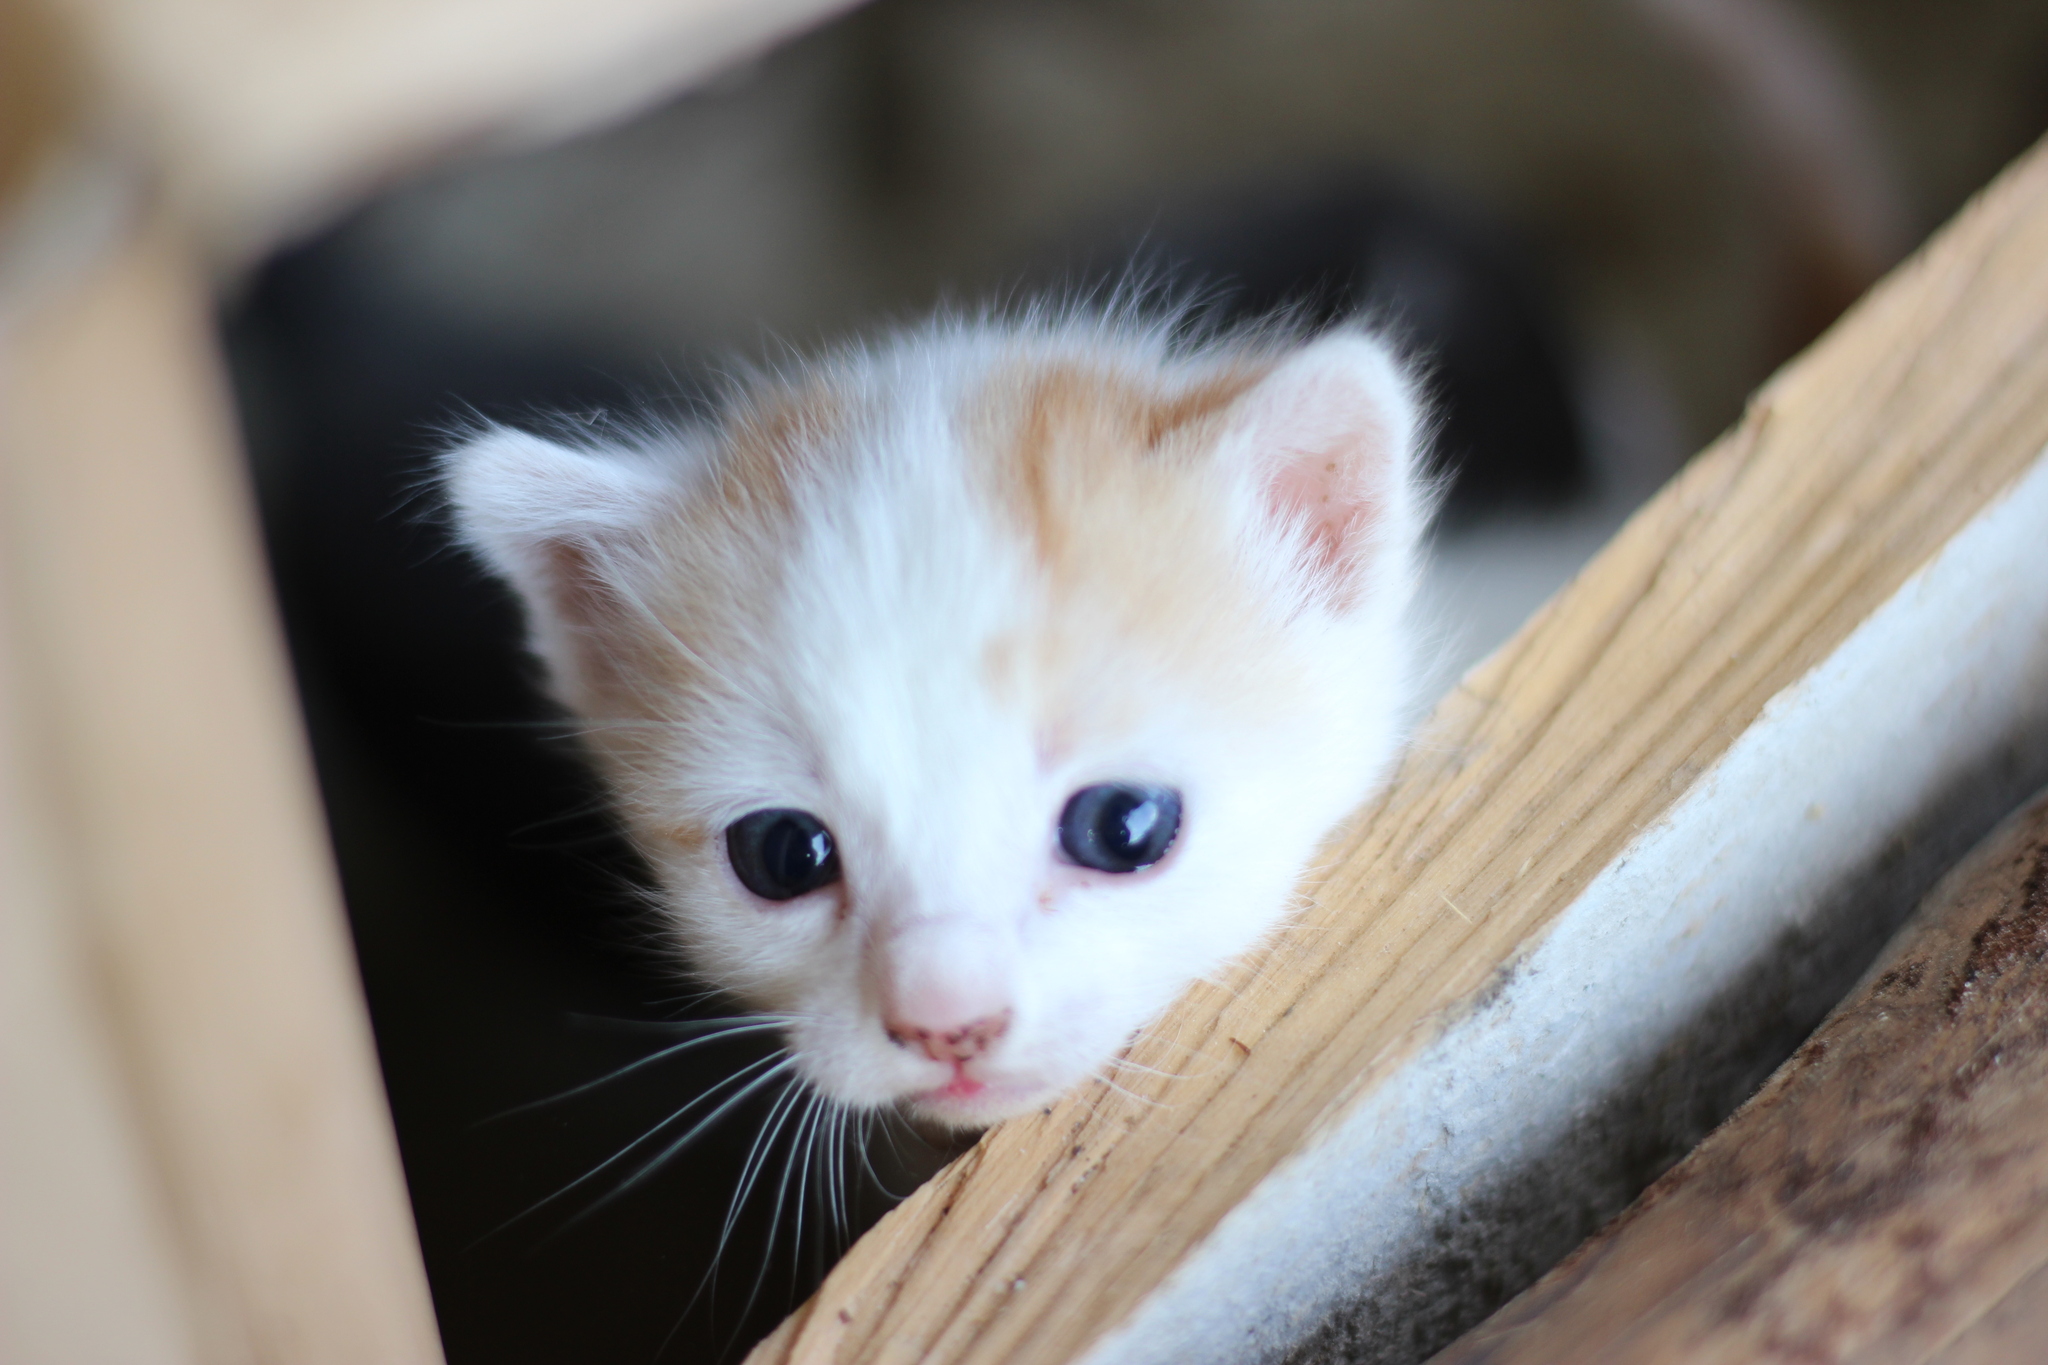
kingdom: Animalia
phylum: Chordata
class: Mammalia
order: Carnivora
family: Felidae
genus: Felis
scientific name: Felis catus
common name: Domestic cat
